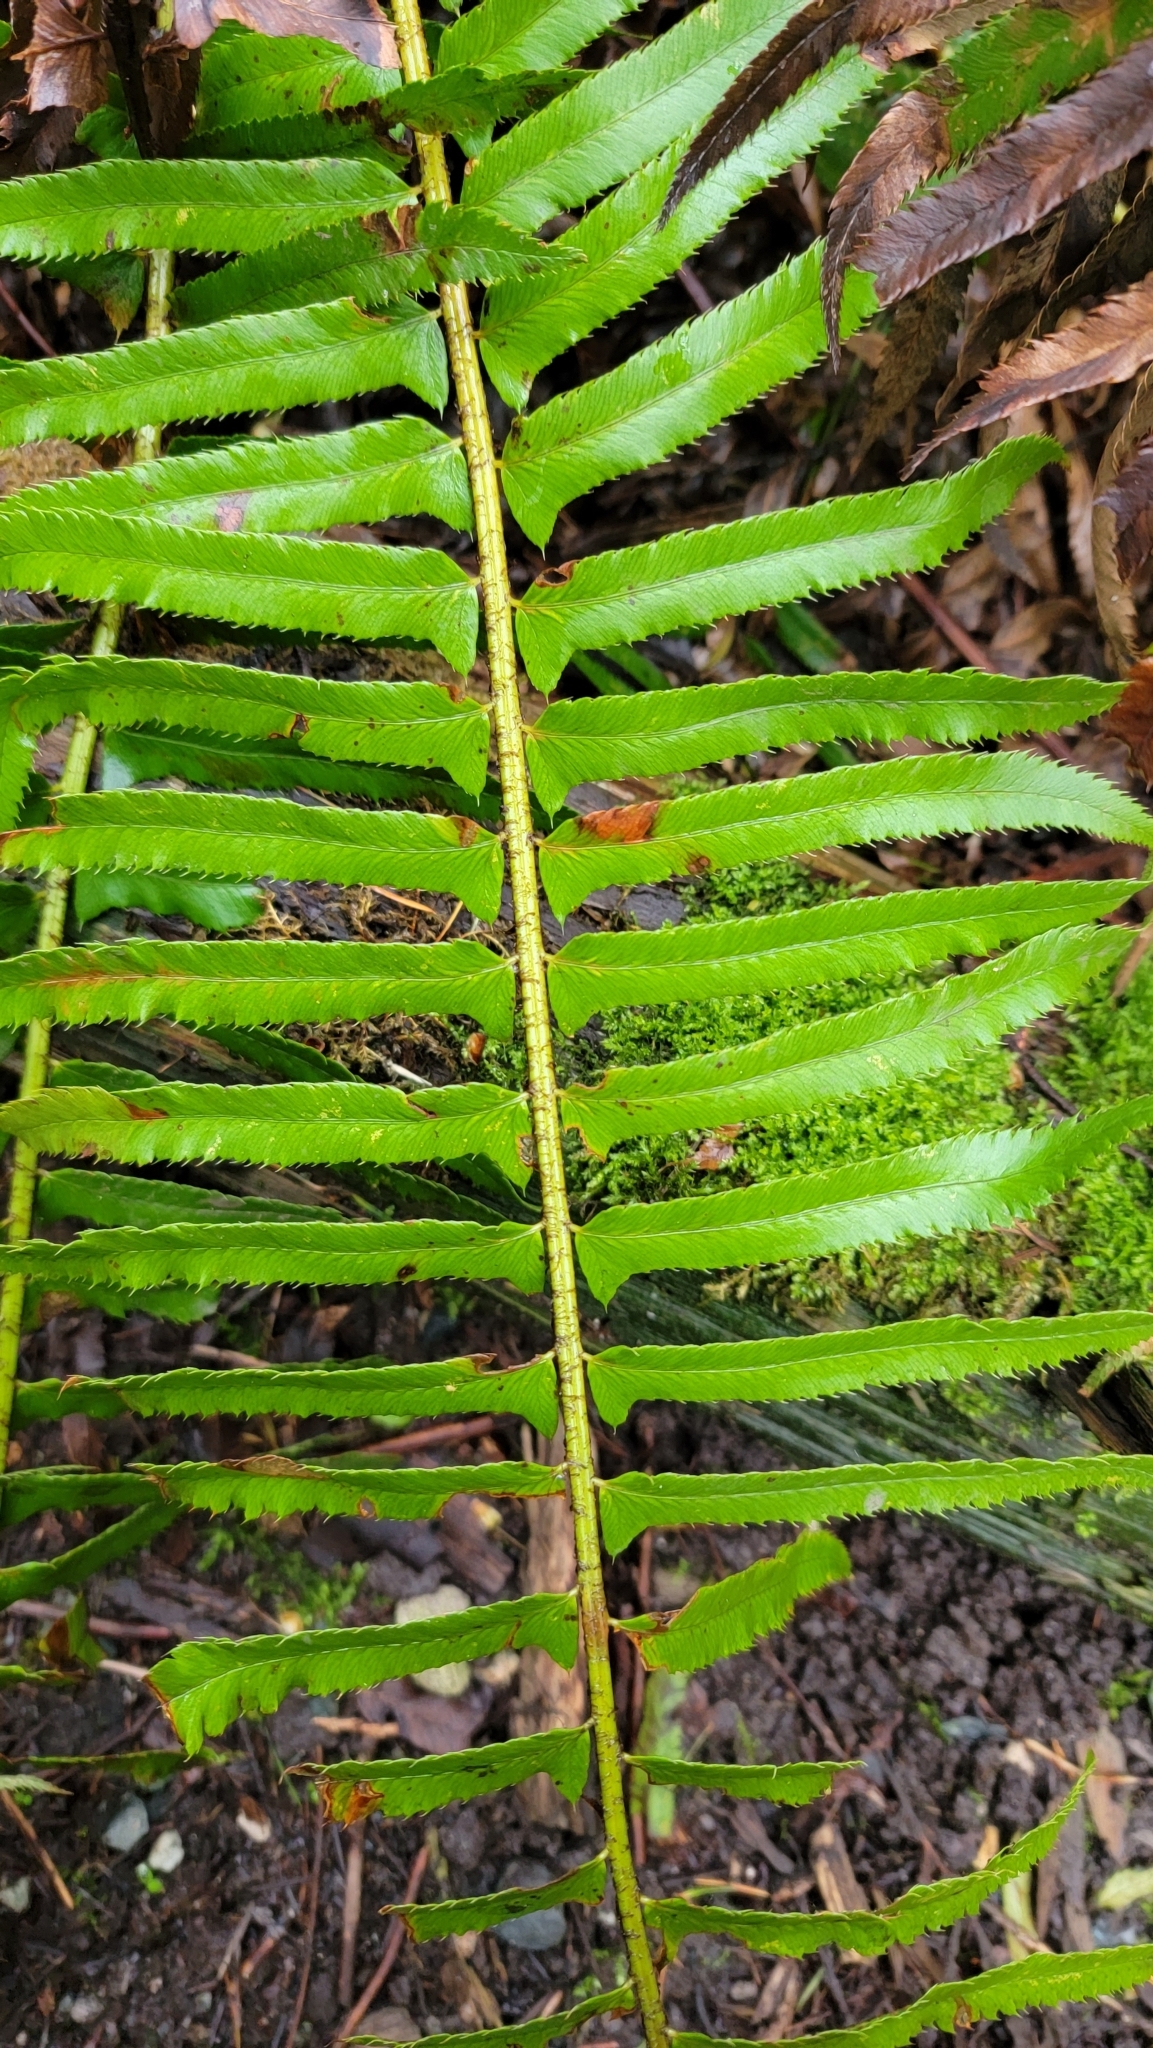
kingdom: Plantae
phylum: Tracheophyta
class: Polypodiopsida
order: Polypodiales
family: Dryopteridaceae
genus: Polystichum
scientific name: Polystichum munitum
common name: Western sword-fern
